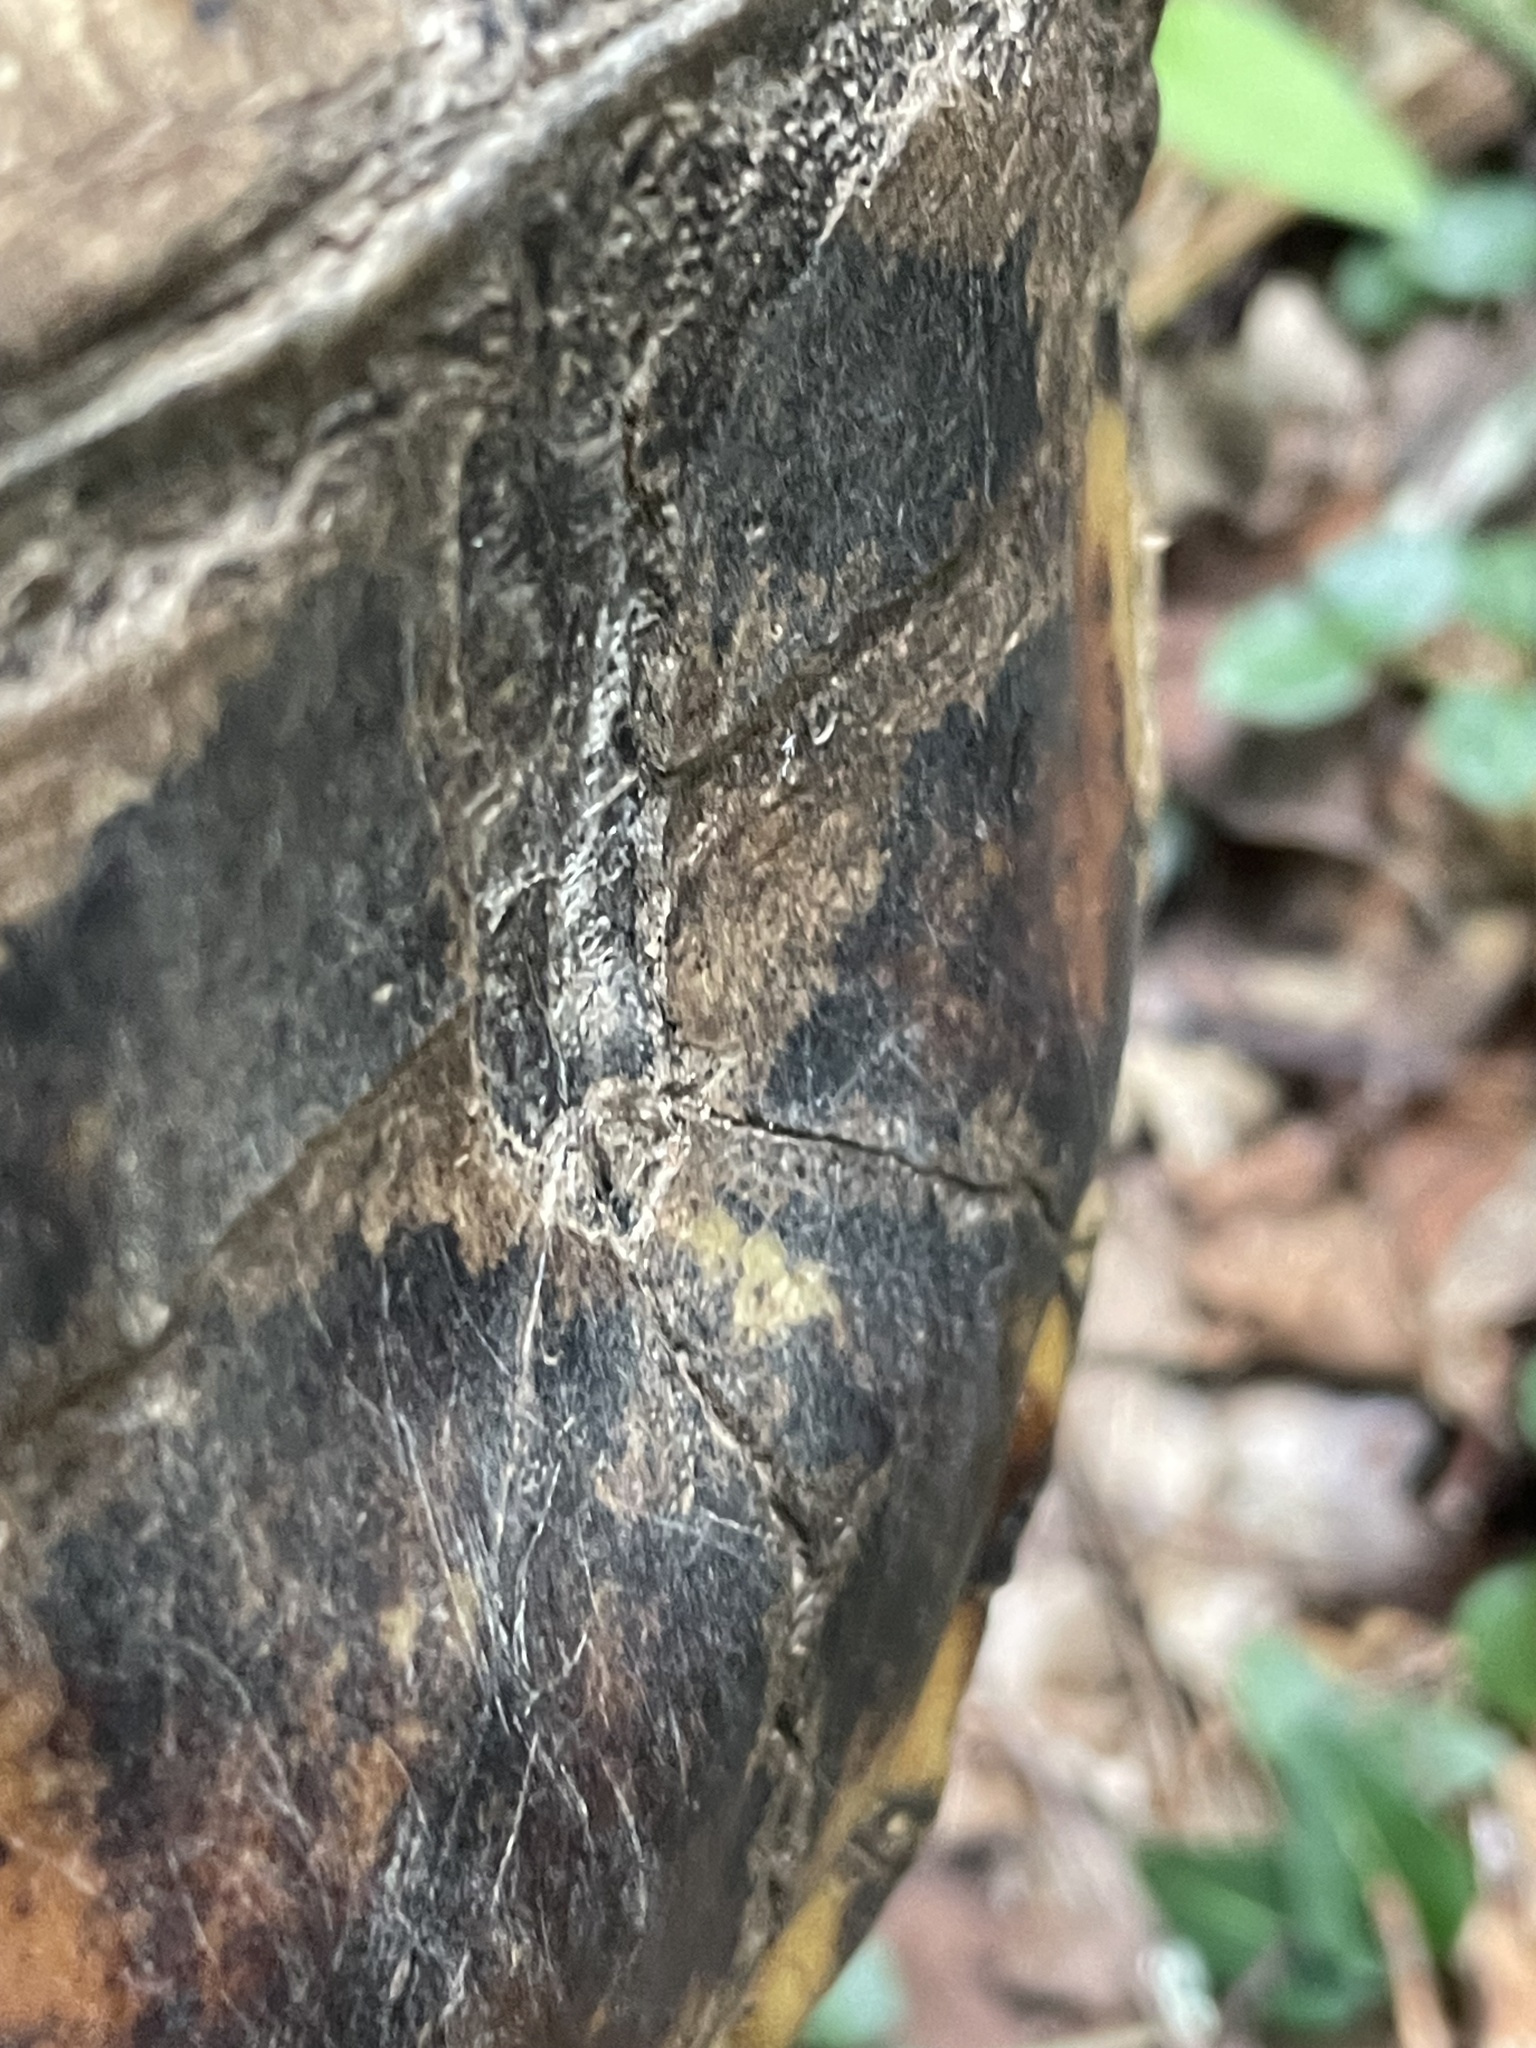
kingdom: Animalia
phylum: Chordata
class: Testudines
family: Emydidae
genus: Terrapene
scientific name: Terrapene carolina
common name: Common box turtle
